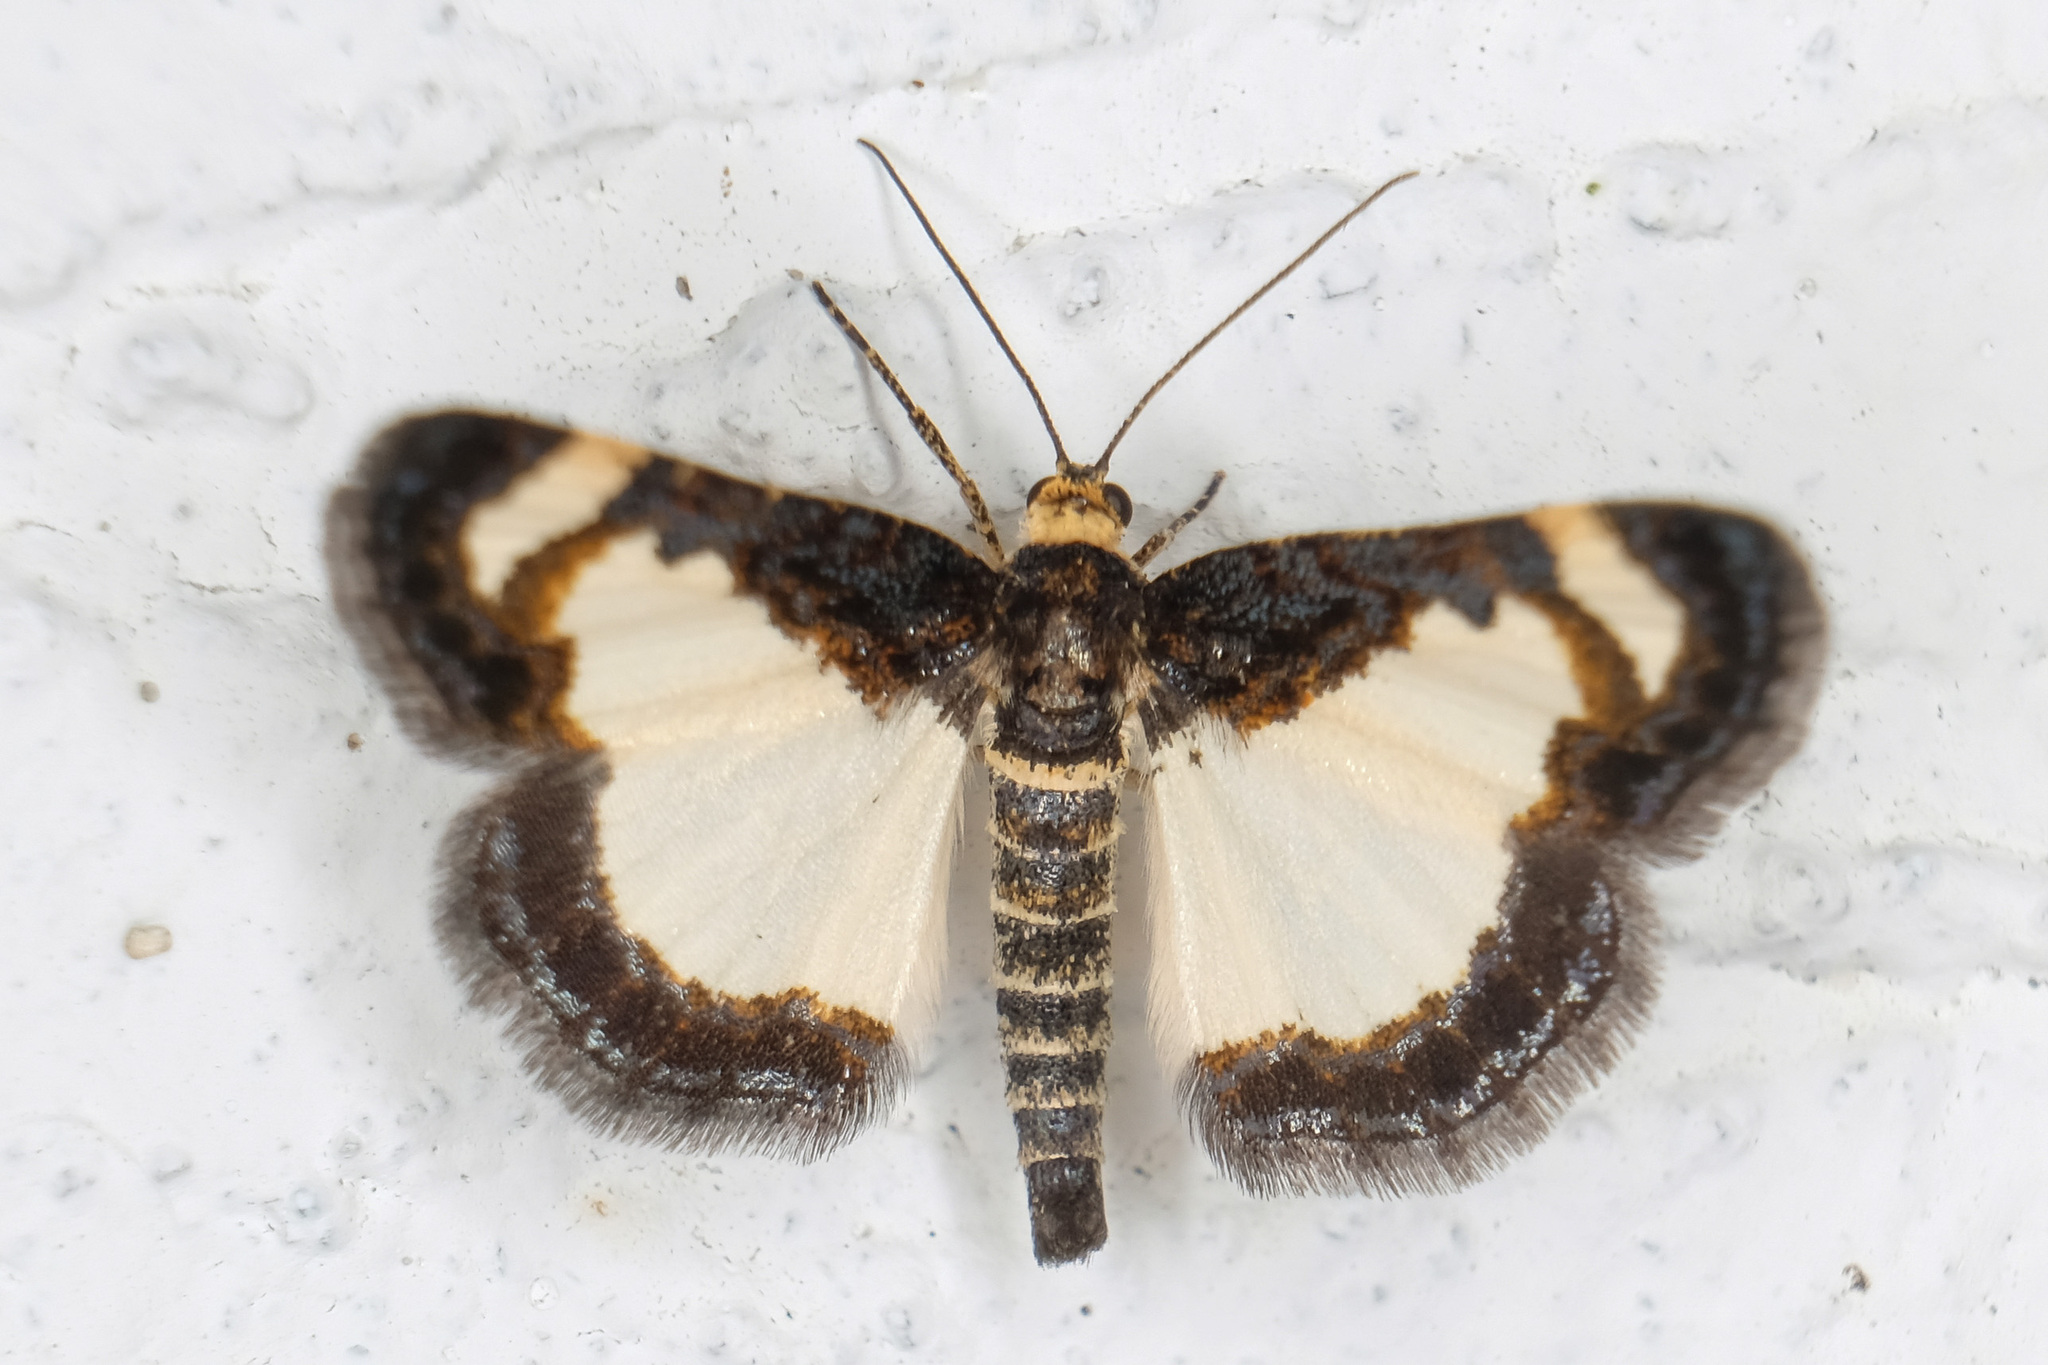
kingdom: Animalia
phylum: Arthropoda
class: Insecta
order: Lepidoptera
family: Geometridae
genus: Heliomata
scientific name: Heliomata cycladata
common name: Common spring moth
